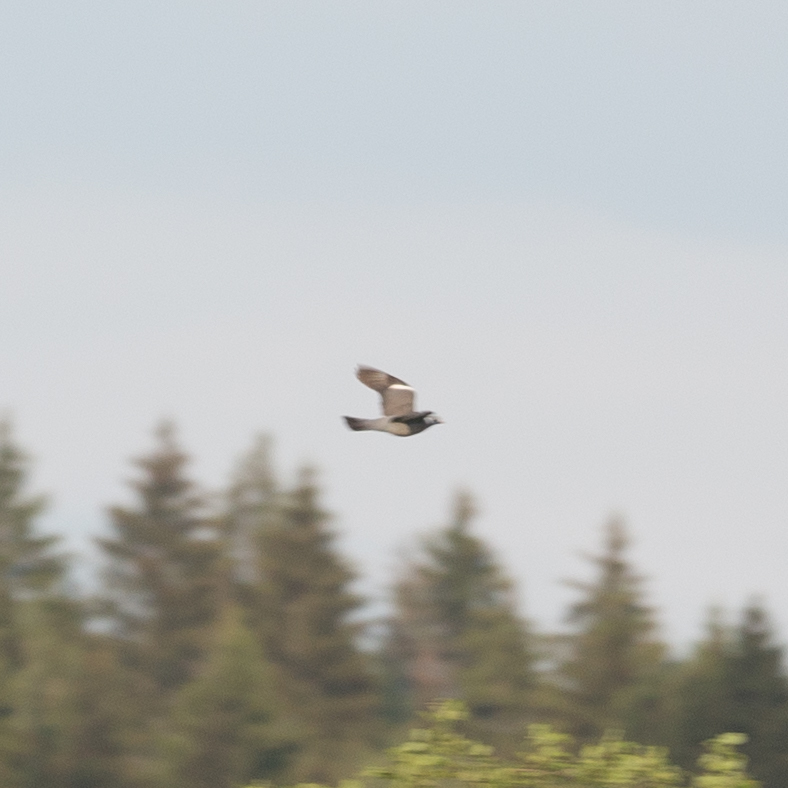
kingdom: Animalia
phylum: Chordata
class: Aves
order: Columbiformes
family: Columbidae
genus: Columba
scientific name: Columba palumbus
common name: Common wood pigeon
